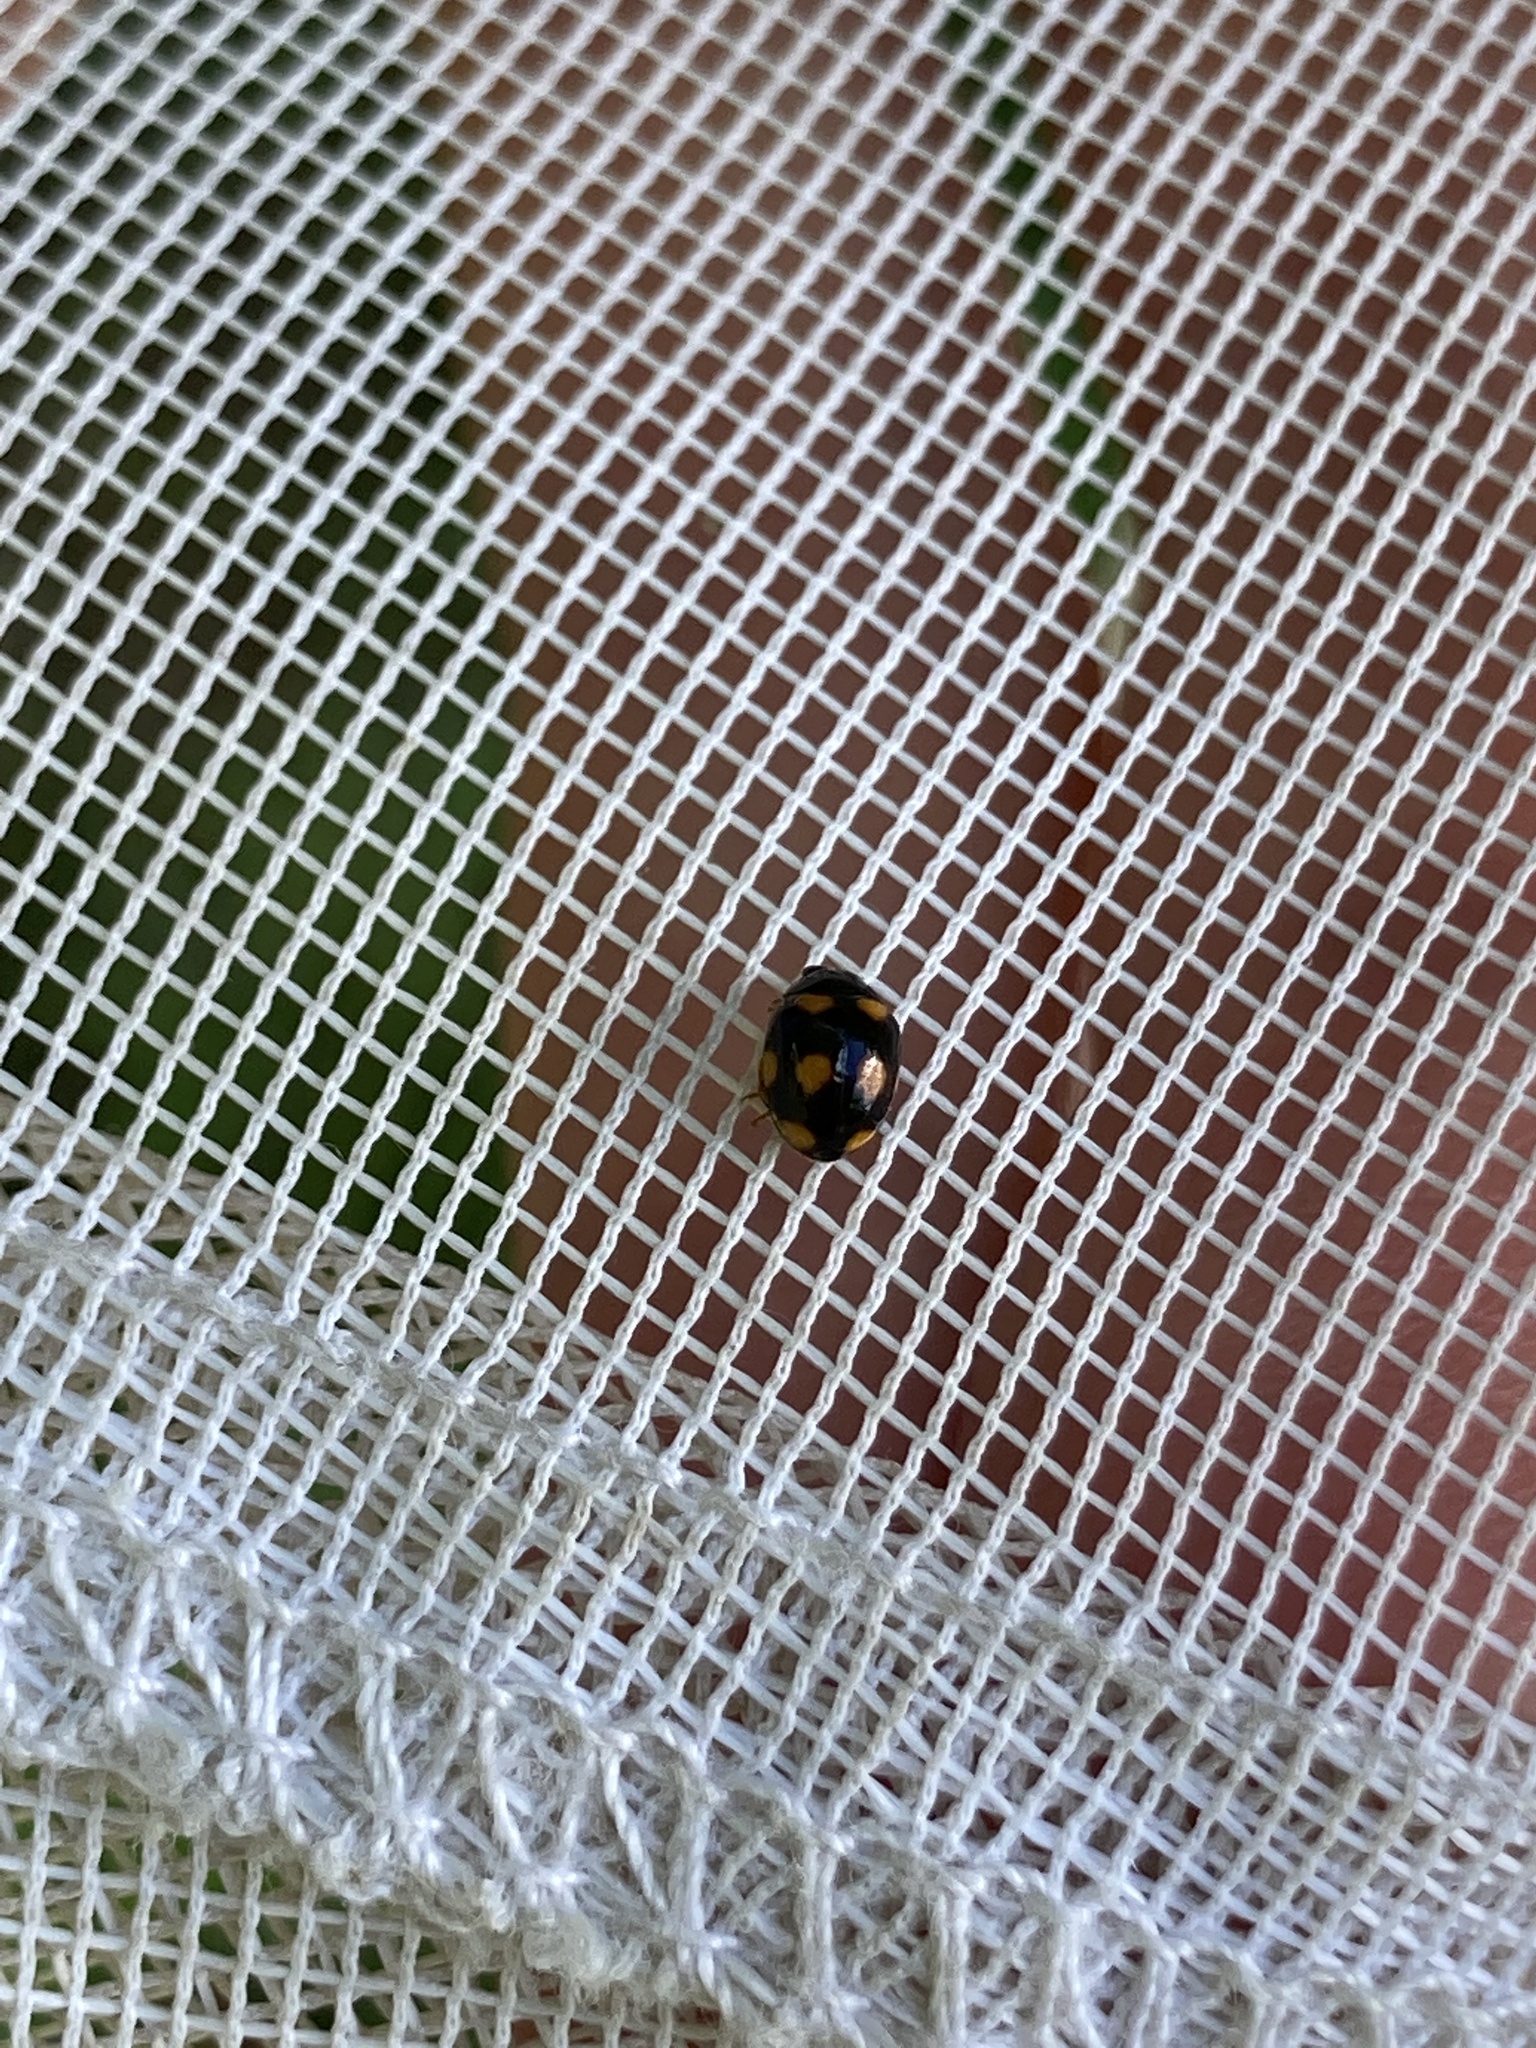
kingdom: Animalia
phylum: Arthropoda
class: Insecta
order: Coleoptera
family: Coccinellidae
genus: Brachiacantha
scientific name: Brachiacantha ursina
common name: Ursine spurleg lady beetle
